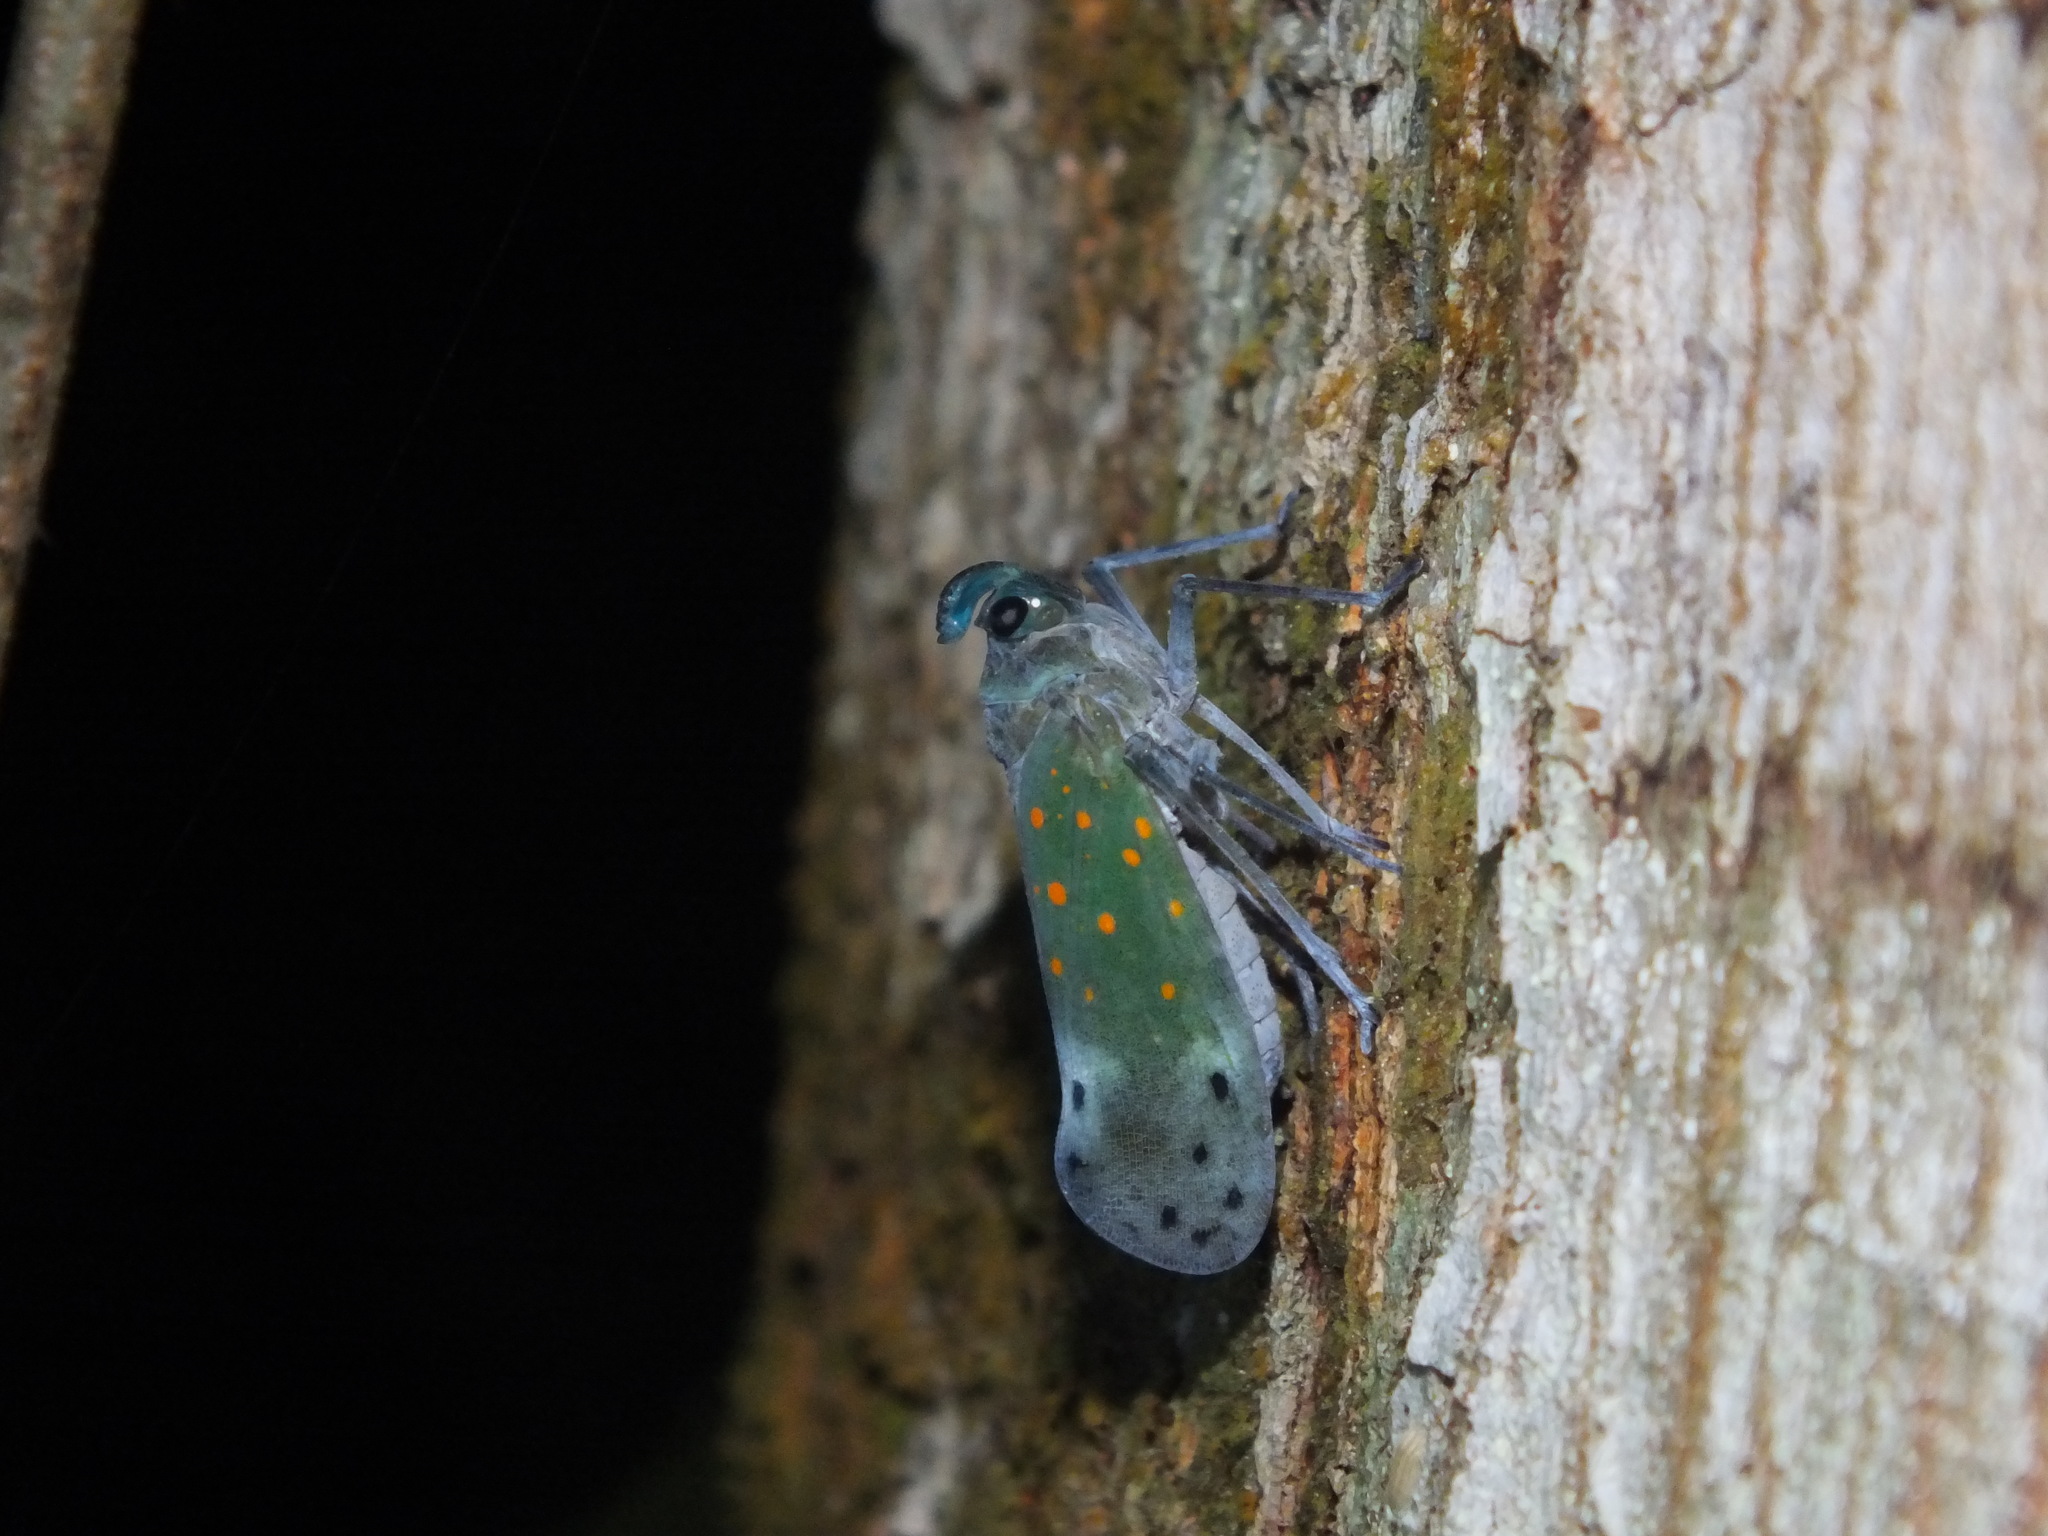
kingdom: Animalia
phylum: Arthropoda
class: Insecta
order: Hemiptera
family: Fulgoridae
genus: Enchophora
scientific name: Enchophora leae
